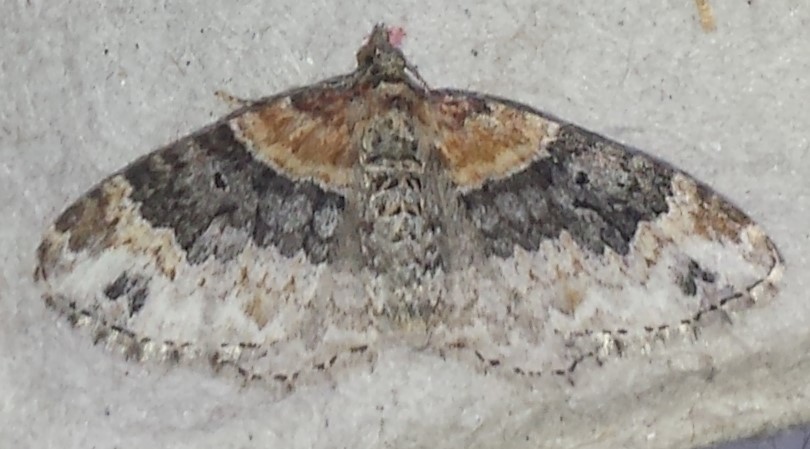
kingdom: Animalia
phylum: Arthropoda
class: Insecta
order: Lepidoptera
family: Geometridae
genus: Xanthorhoe
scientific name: Xanthorhoe ferrugata
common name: Dark-barred twin-spot carpet
